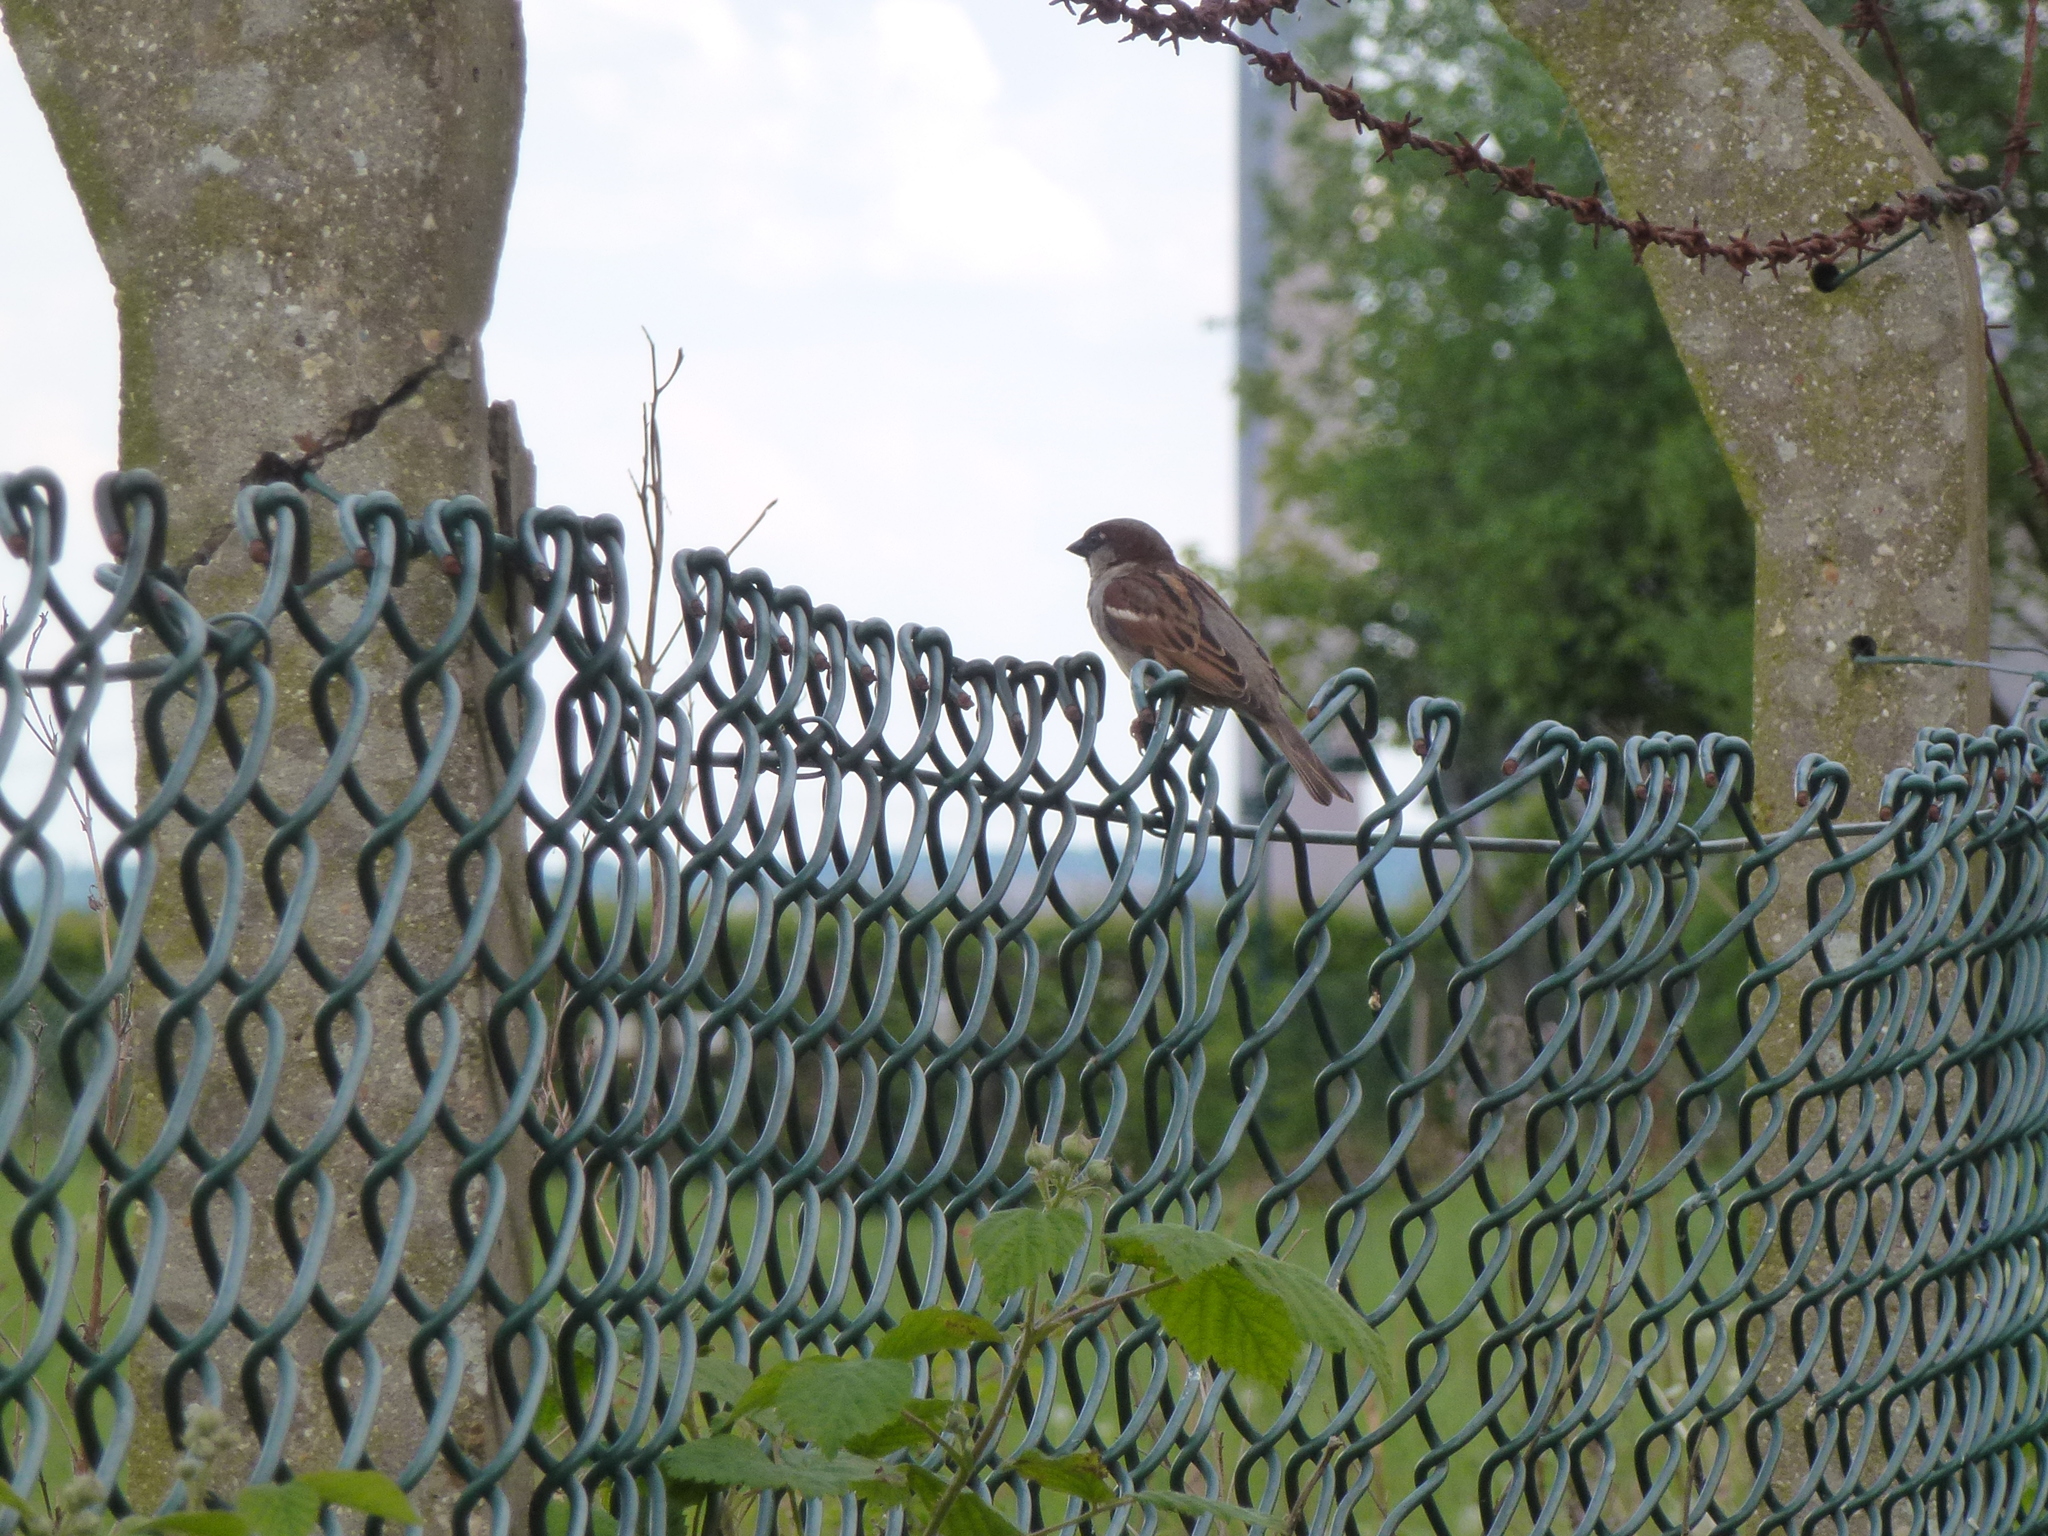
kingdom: Animalia
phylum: Chordata
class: Aves
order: Passeriformes
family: Passeridae
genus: Passer
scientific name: Passer domesticus
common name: House sparrow
